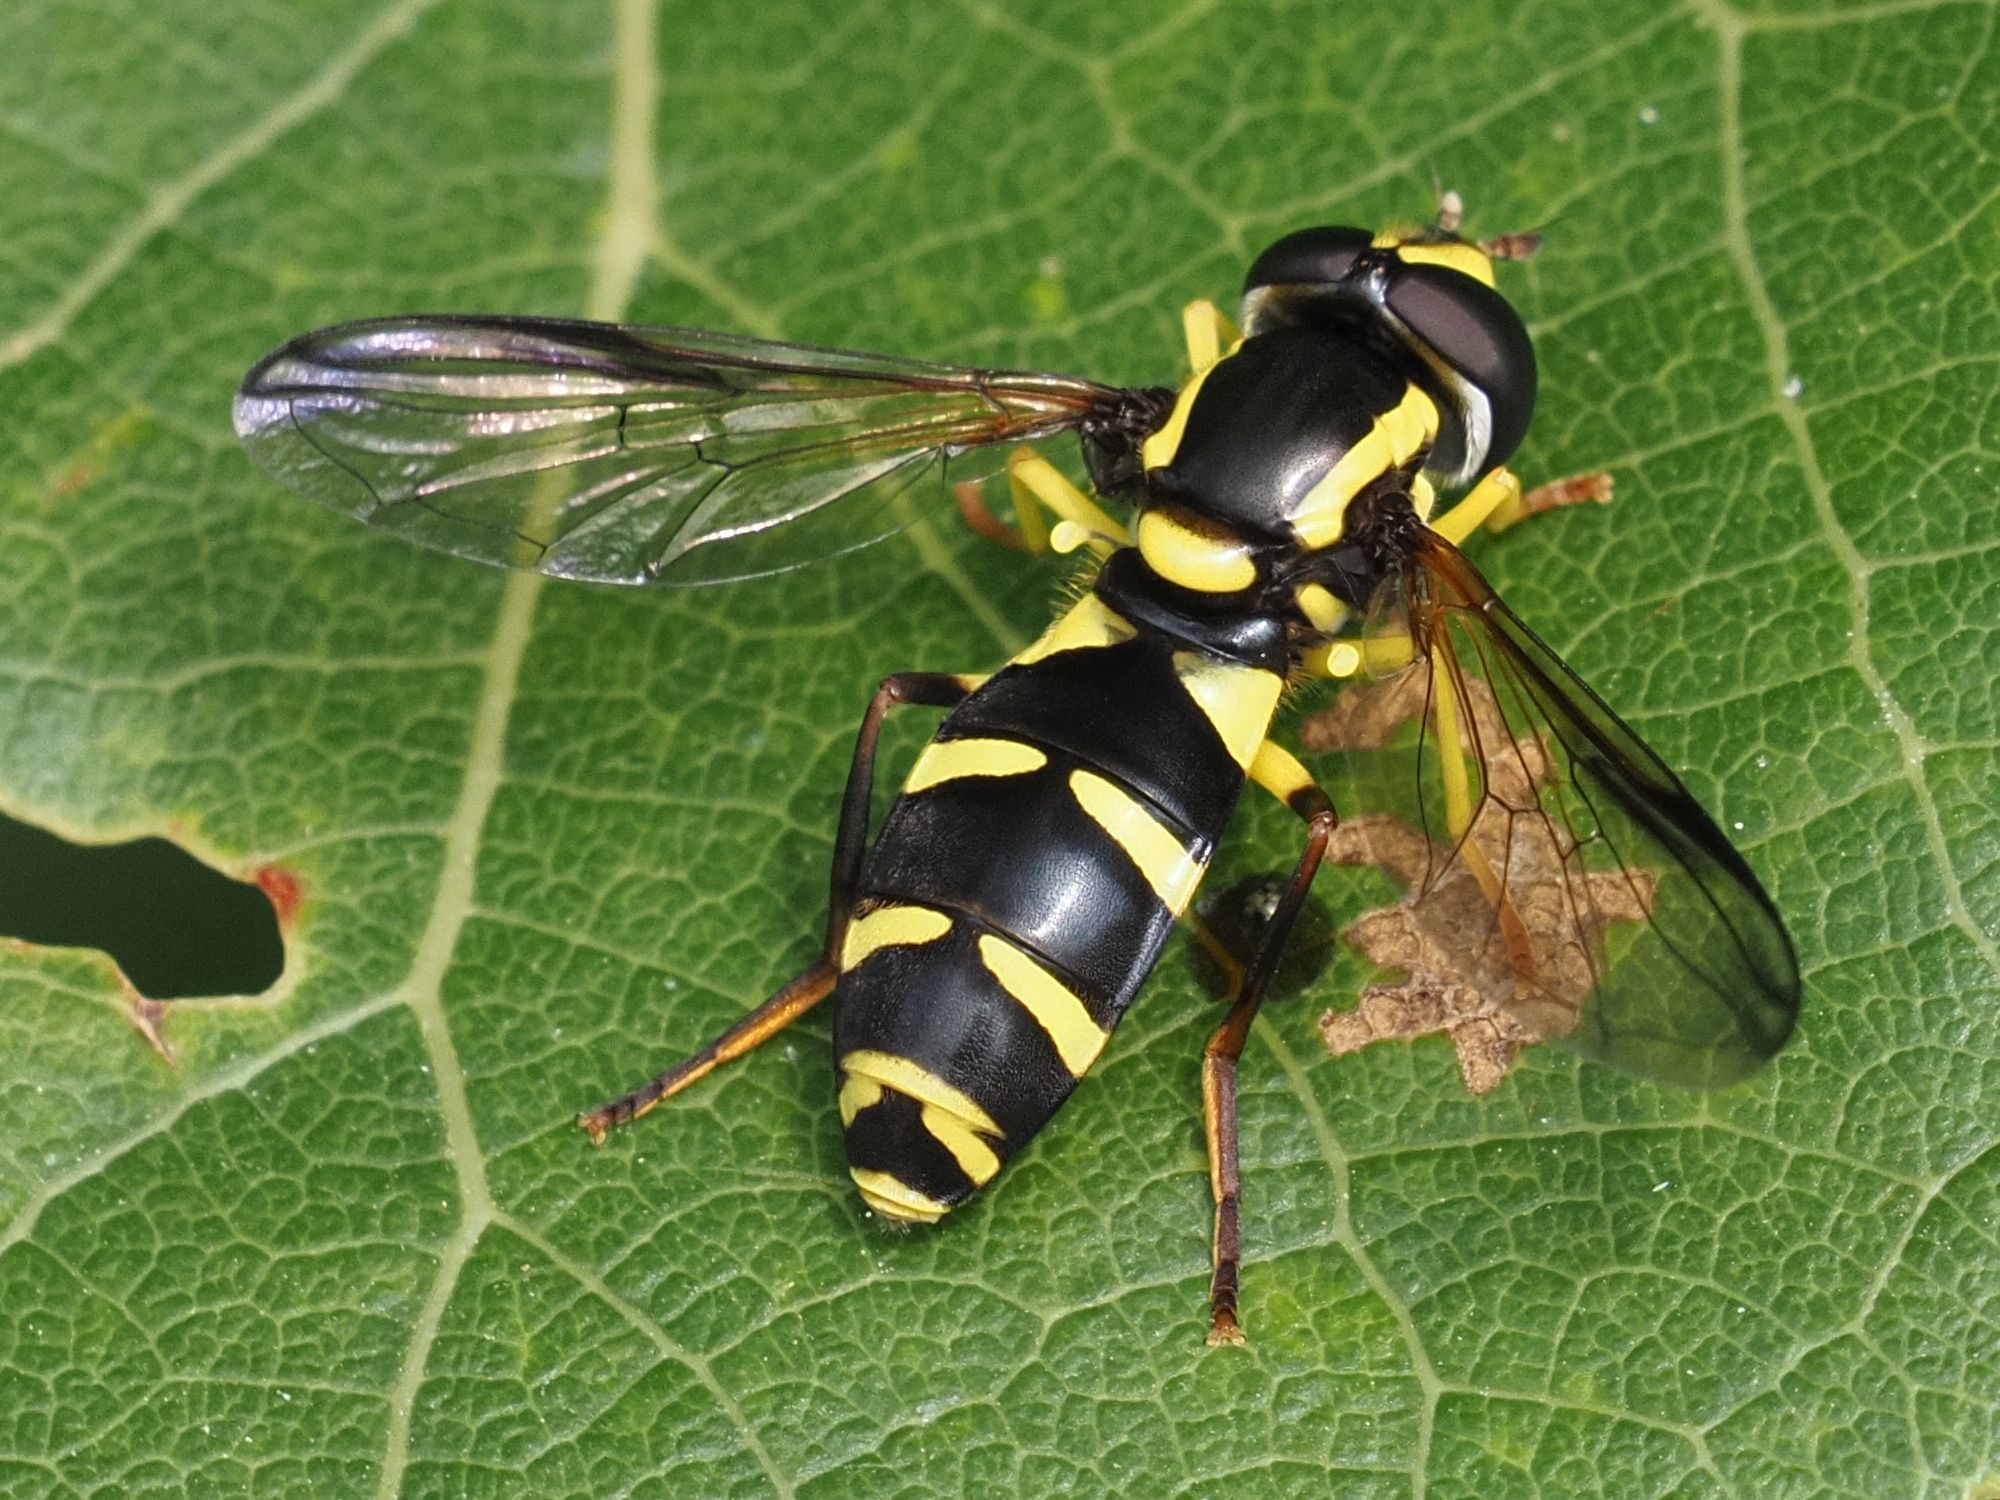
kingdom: Animalia
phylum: Arthropoda
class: Insecta
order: Diptera
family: Syrphidae
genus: Philhelius
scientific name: Philhelius dives
